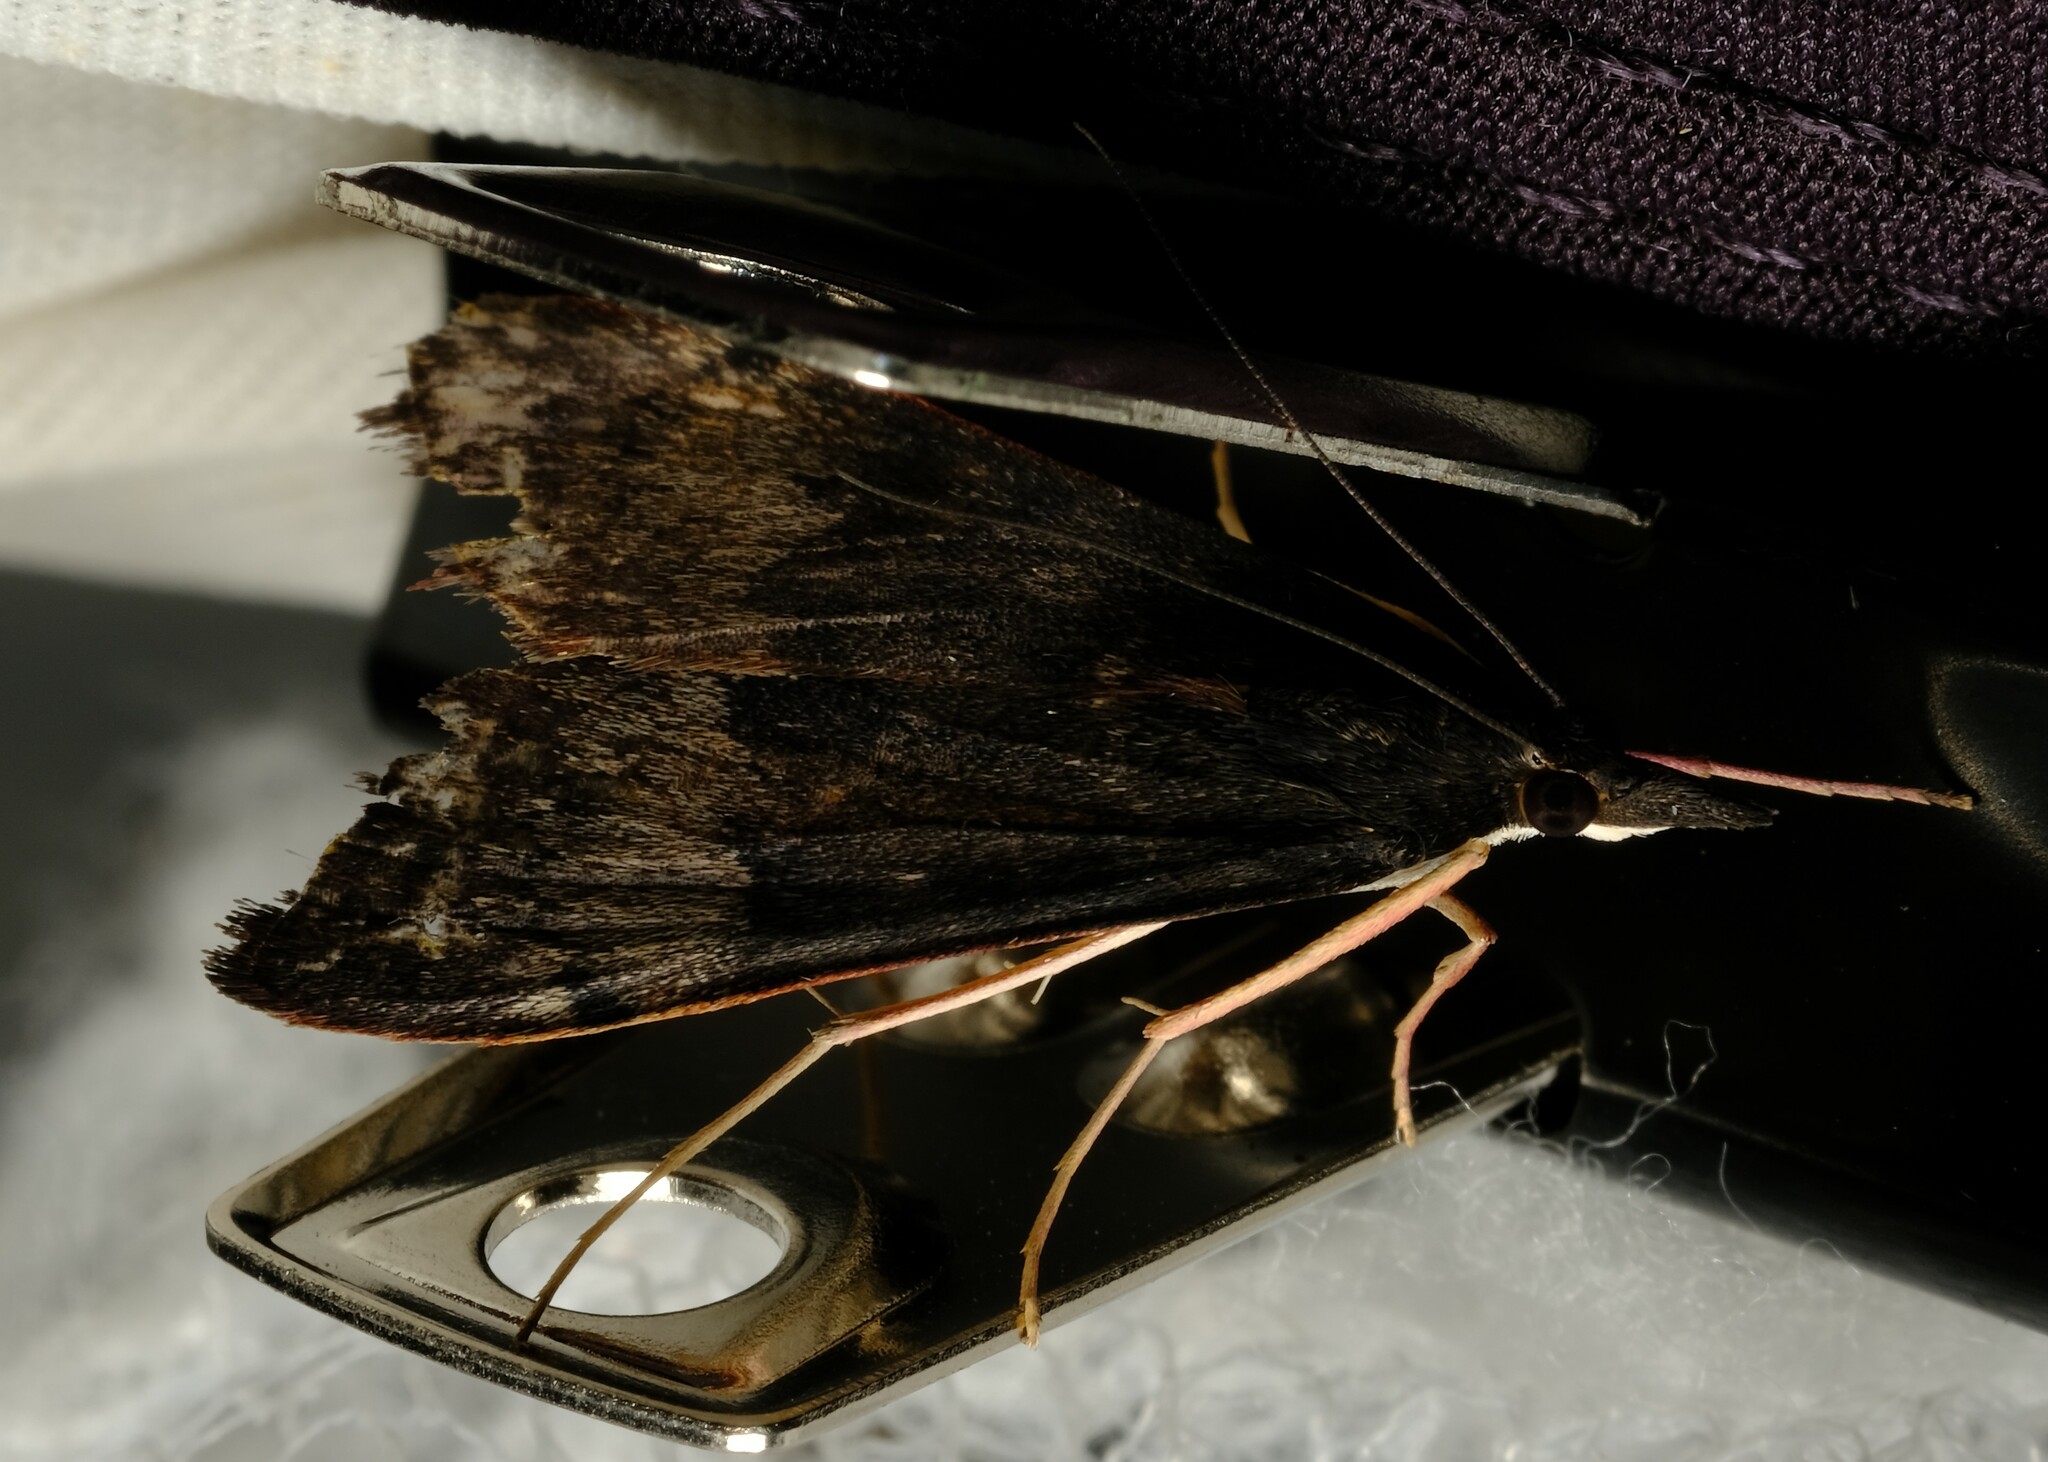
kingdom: Animalia
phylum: Arthropoda
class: Insecta
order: Lepidoptera
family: Crambidae
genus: Uresiphita
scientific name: Uresiphita ornithopteralis
